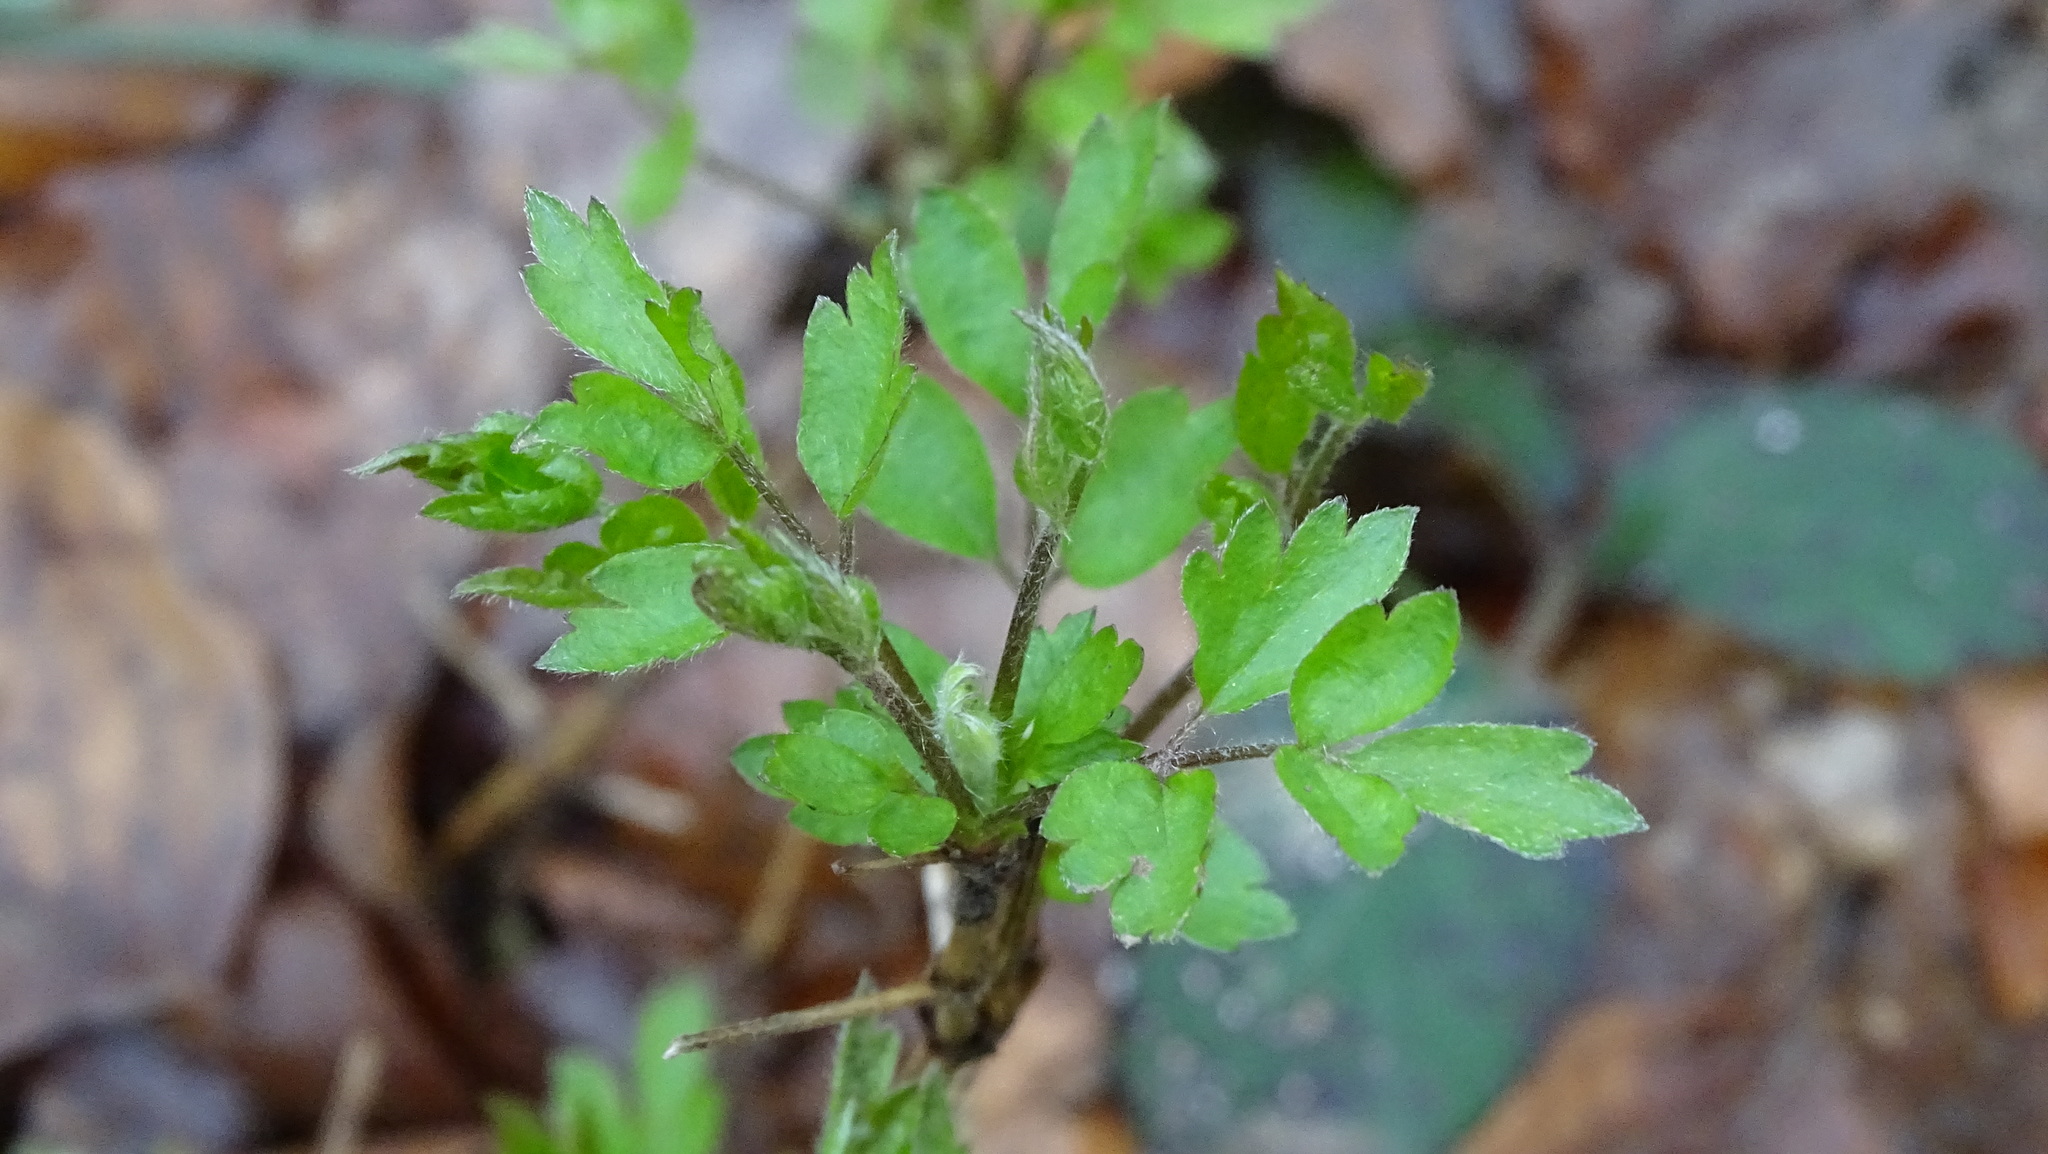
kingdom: Plantae
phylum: Tracheophyta
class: Magnoliopsida
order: Ranunculales
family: Ranunculaceae
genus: Clematis
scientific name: Clematis vitalba
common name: Evergreen clematis
